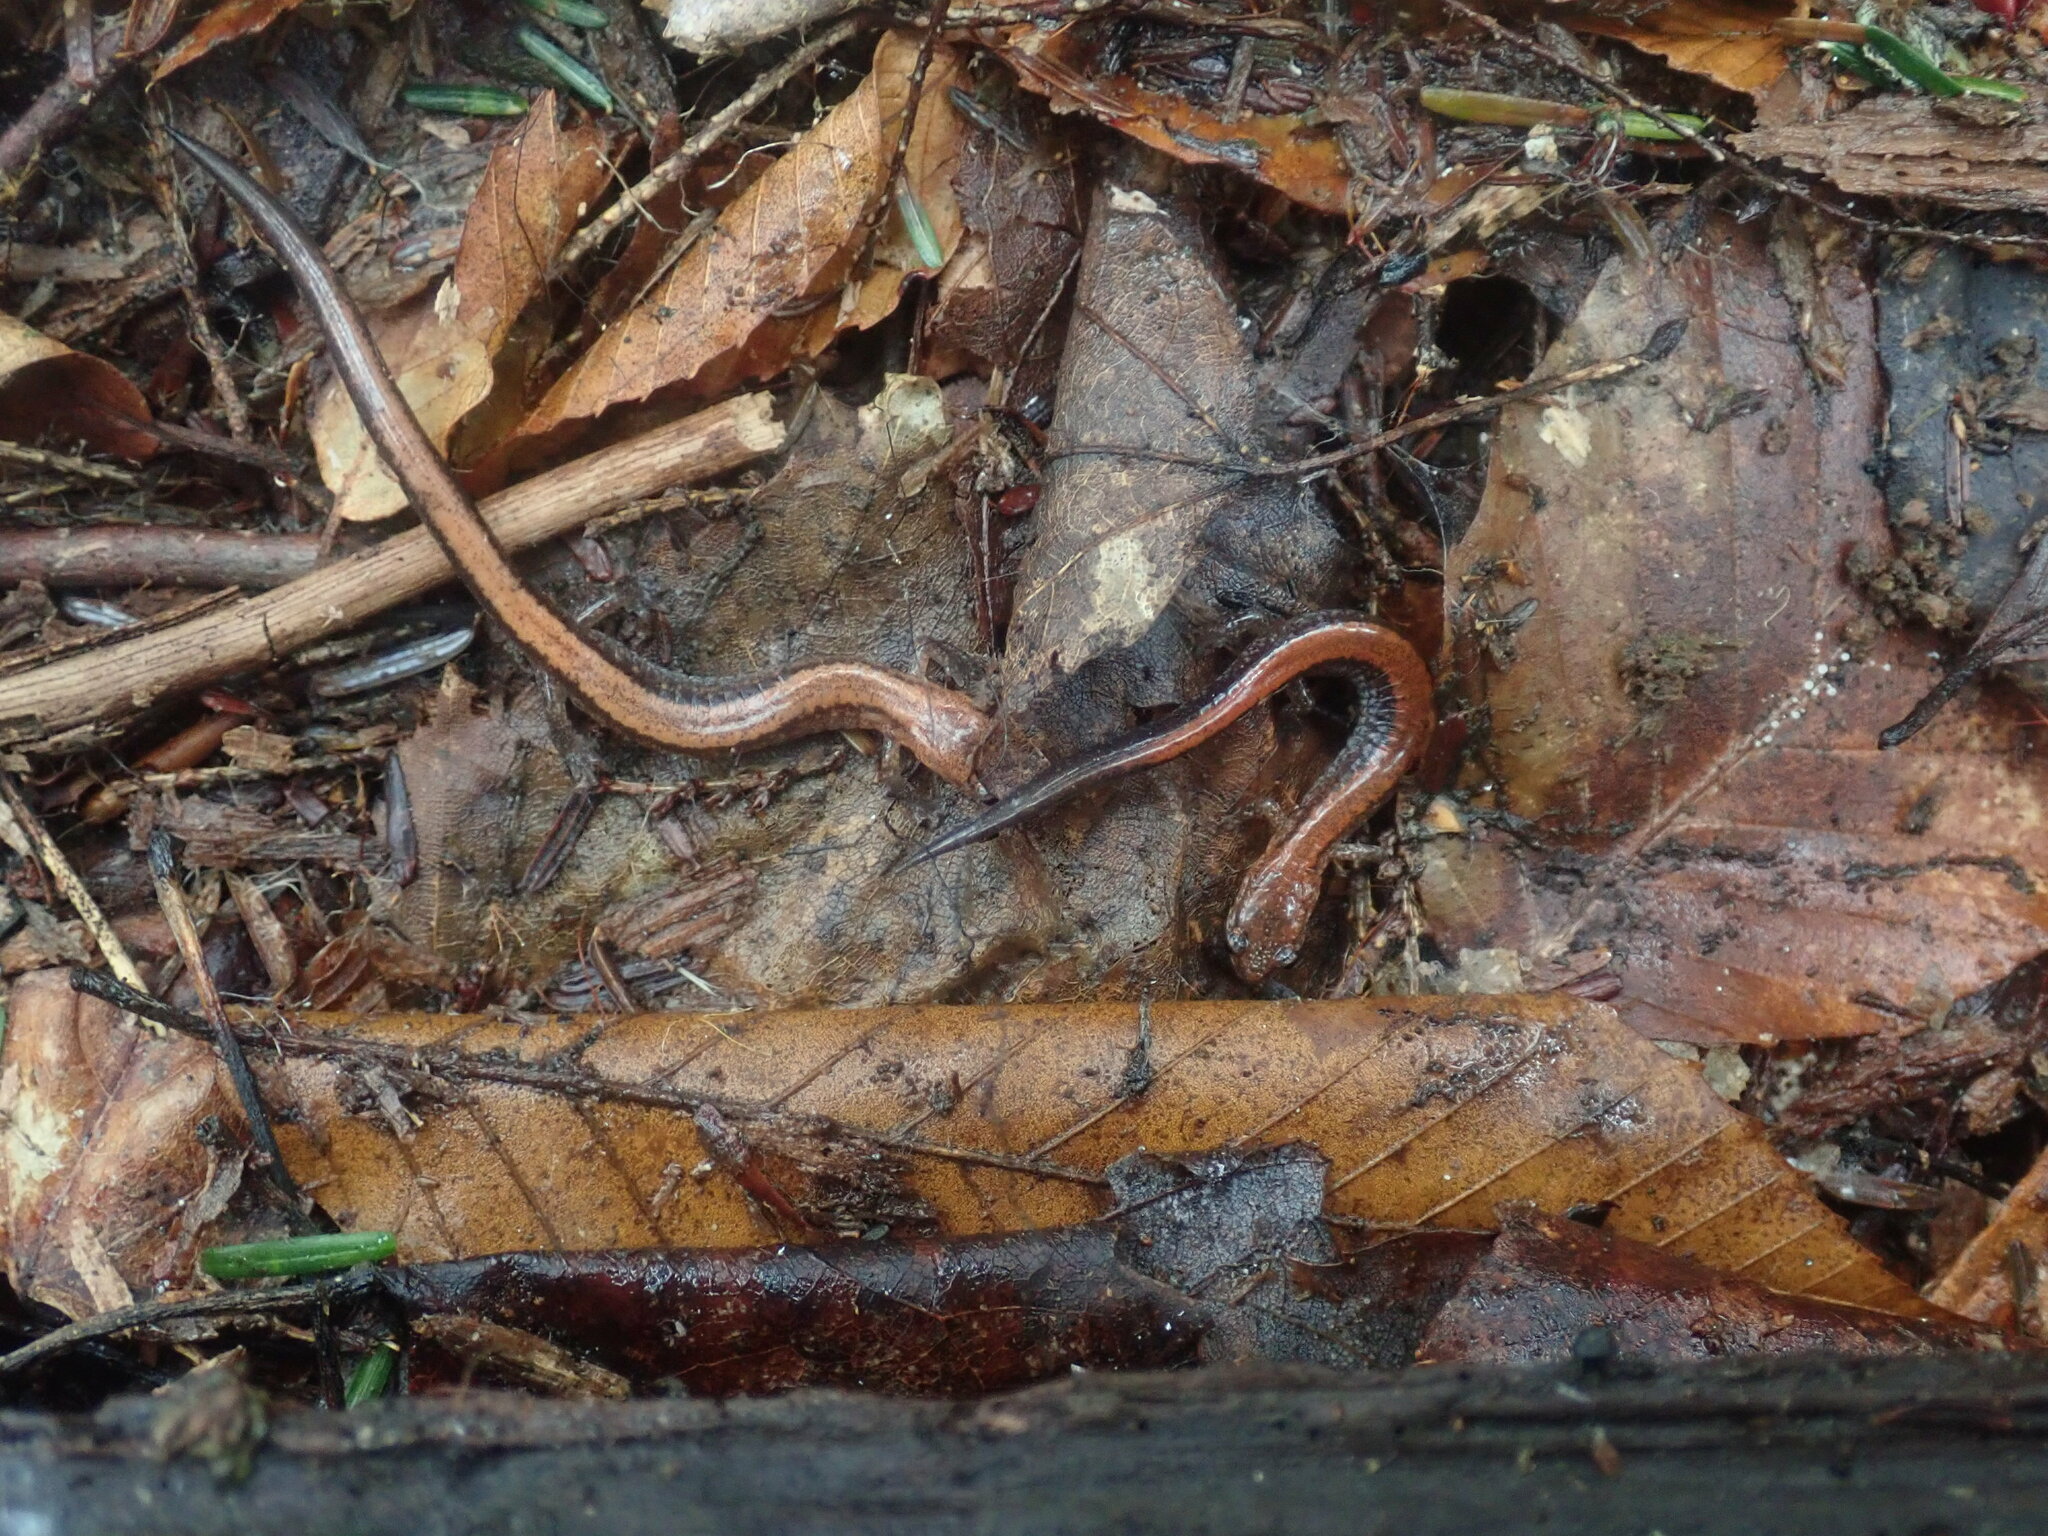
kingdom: Animalia
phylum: Chordata
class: Amphibia
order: Caudata
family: Plethodontidae
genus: Plethodon
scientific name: Plethodon cinereus
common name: Redback salamander
